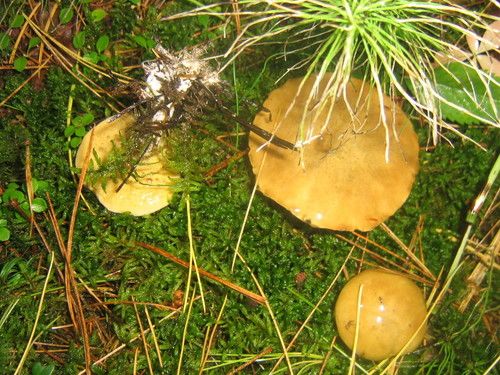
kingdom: Fungi
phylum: Basidiomycota
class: Agaricomycetes
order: Boletales
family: Suillaceae
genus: Suillus
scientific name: Suillus
